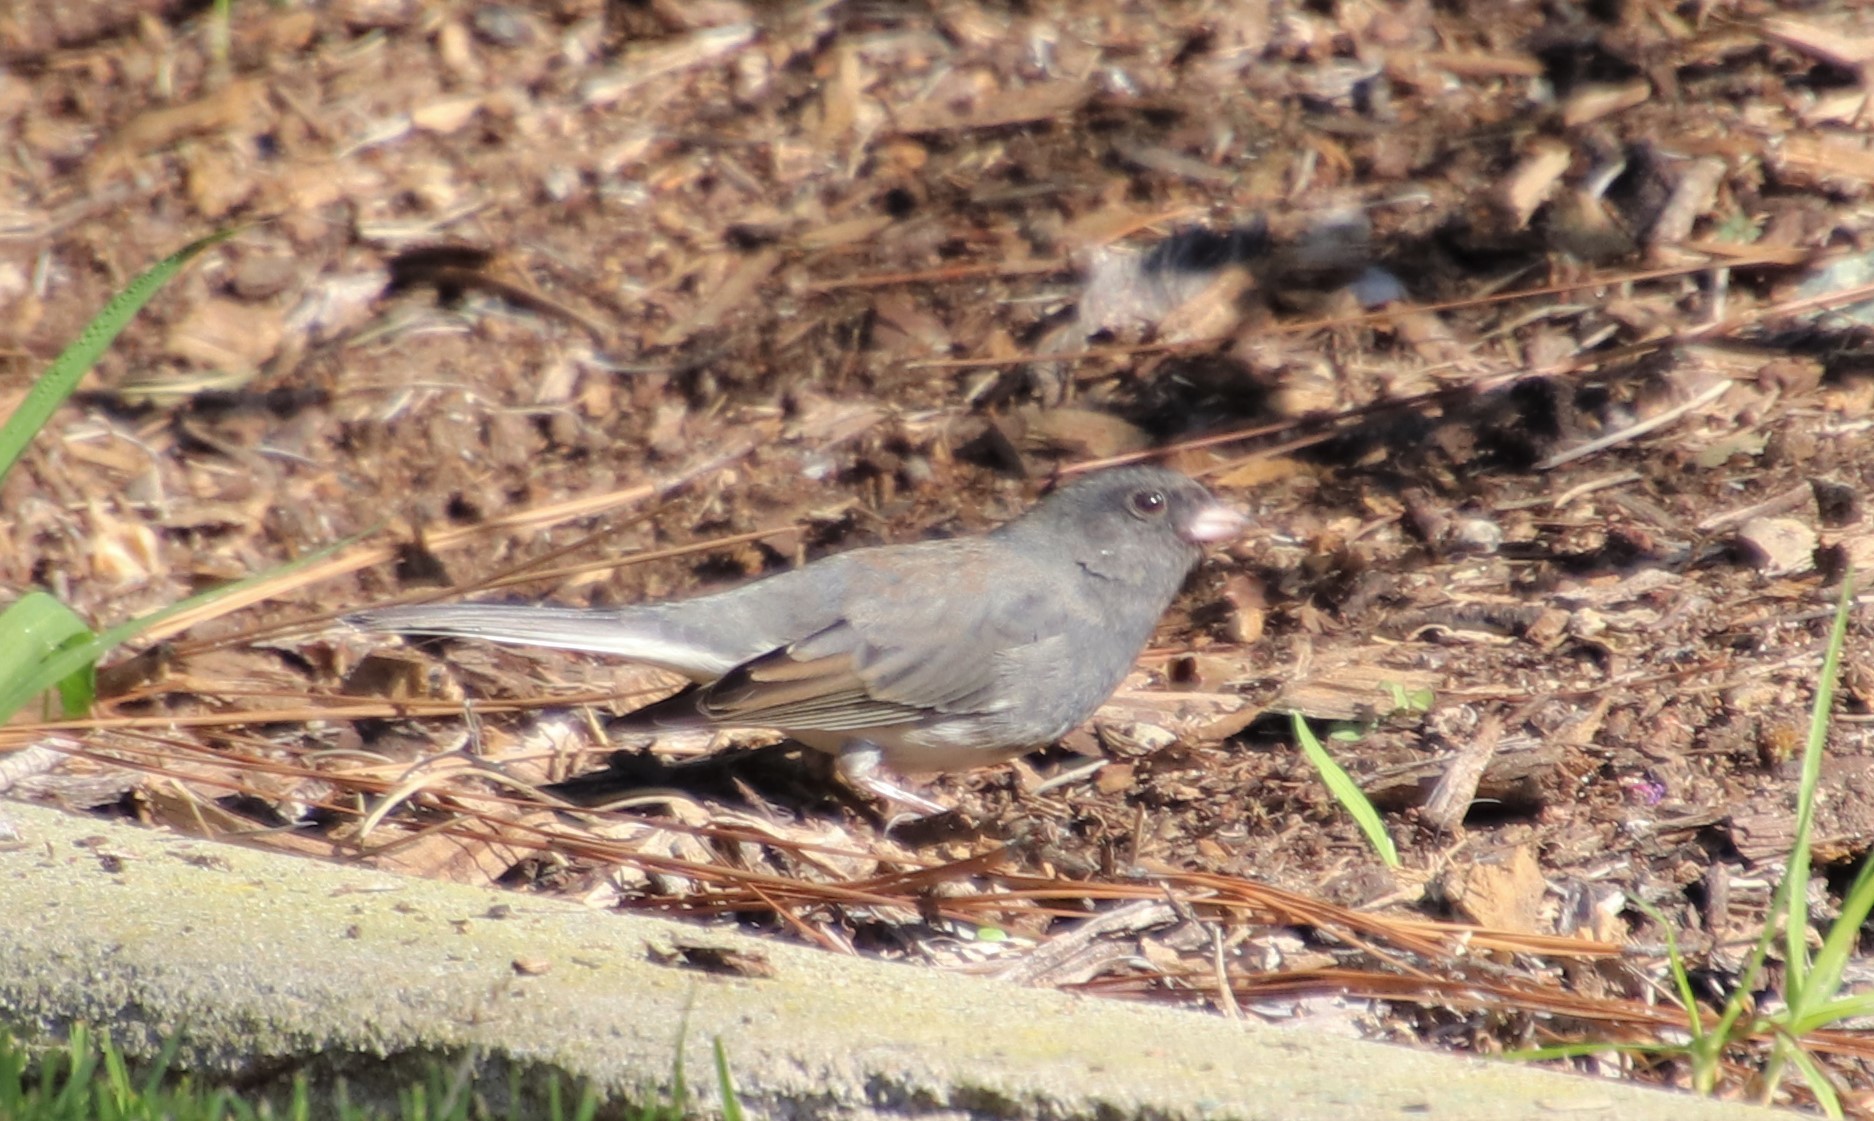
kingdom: Animalia
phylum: Chordata
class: Aves
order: Passeriformes
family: Passerellidae
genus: Junco
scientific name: Junco hyemalis
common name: Dark-eyed junco
